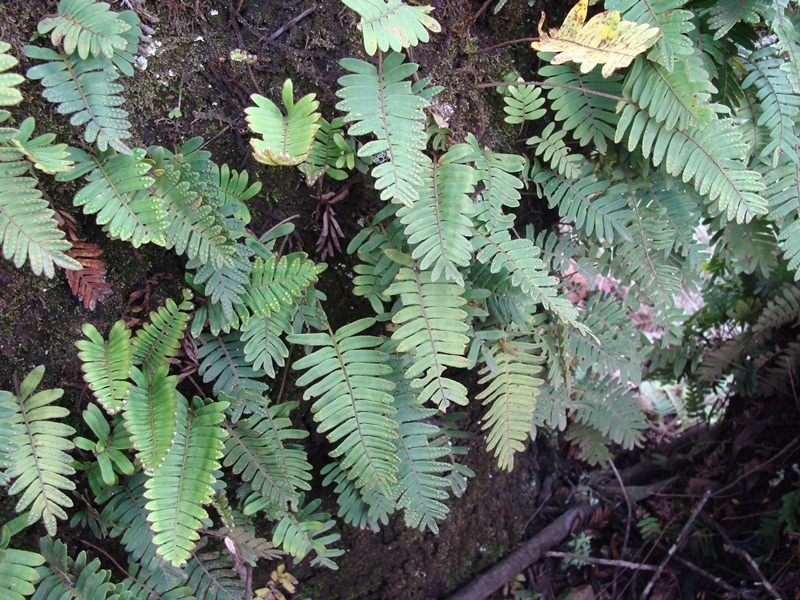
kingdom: Plantae
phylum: Tracheophyta
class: Polypodiopsida
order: Polypodiales
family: Polypodiaceae
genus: Pleopeltis
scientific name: Pleopeltis acicularis
